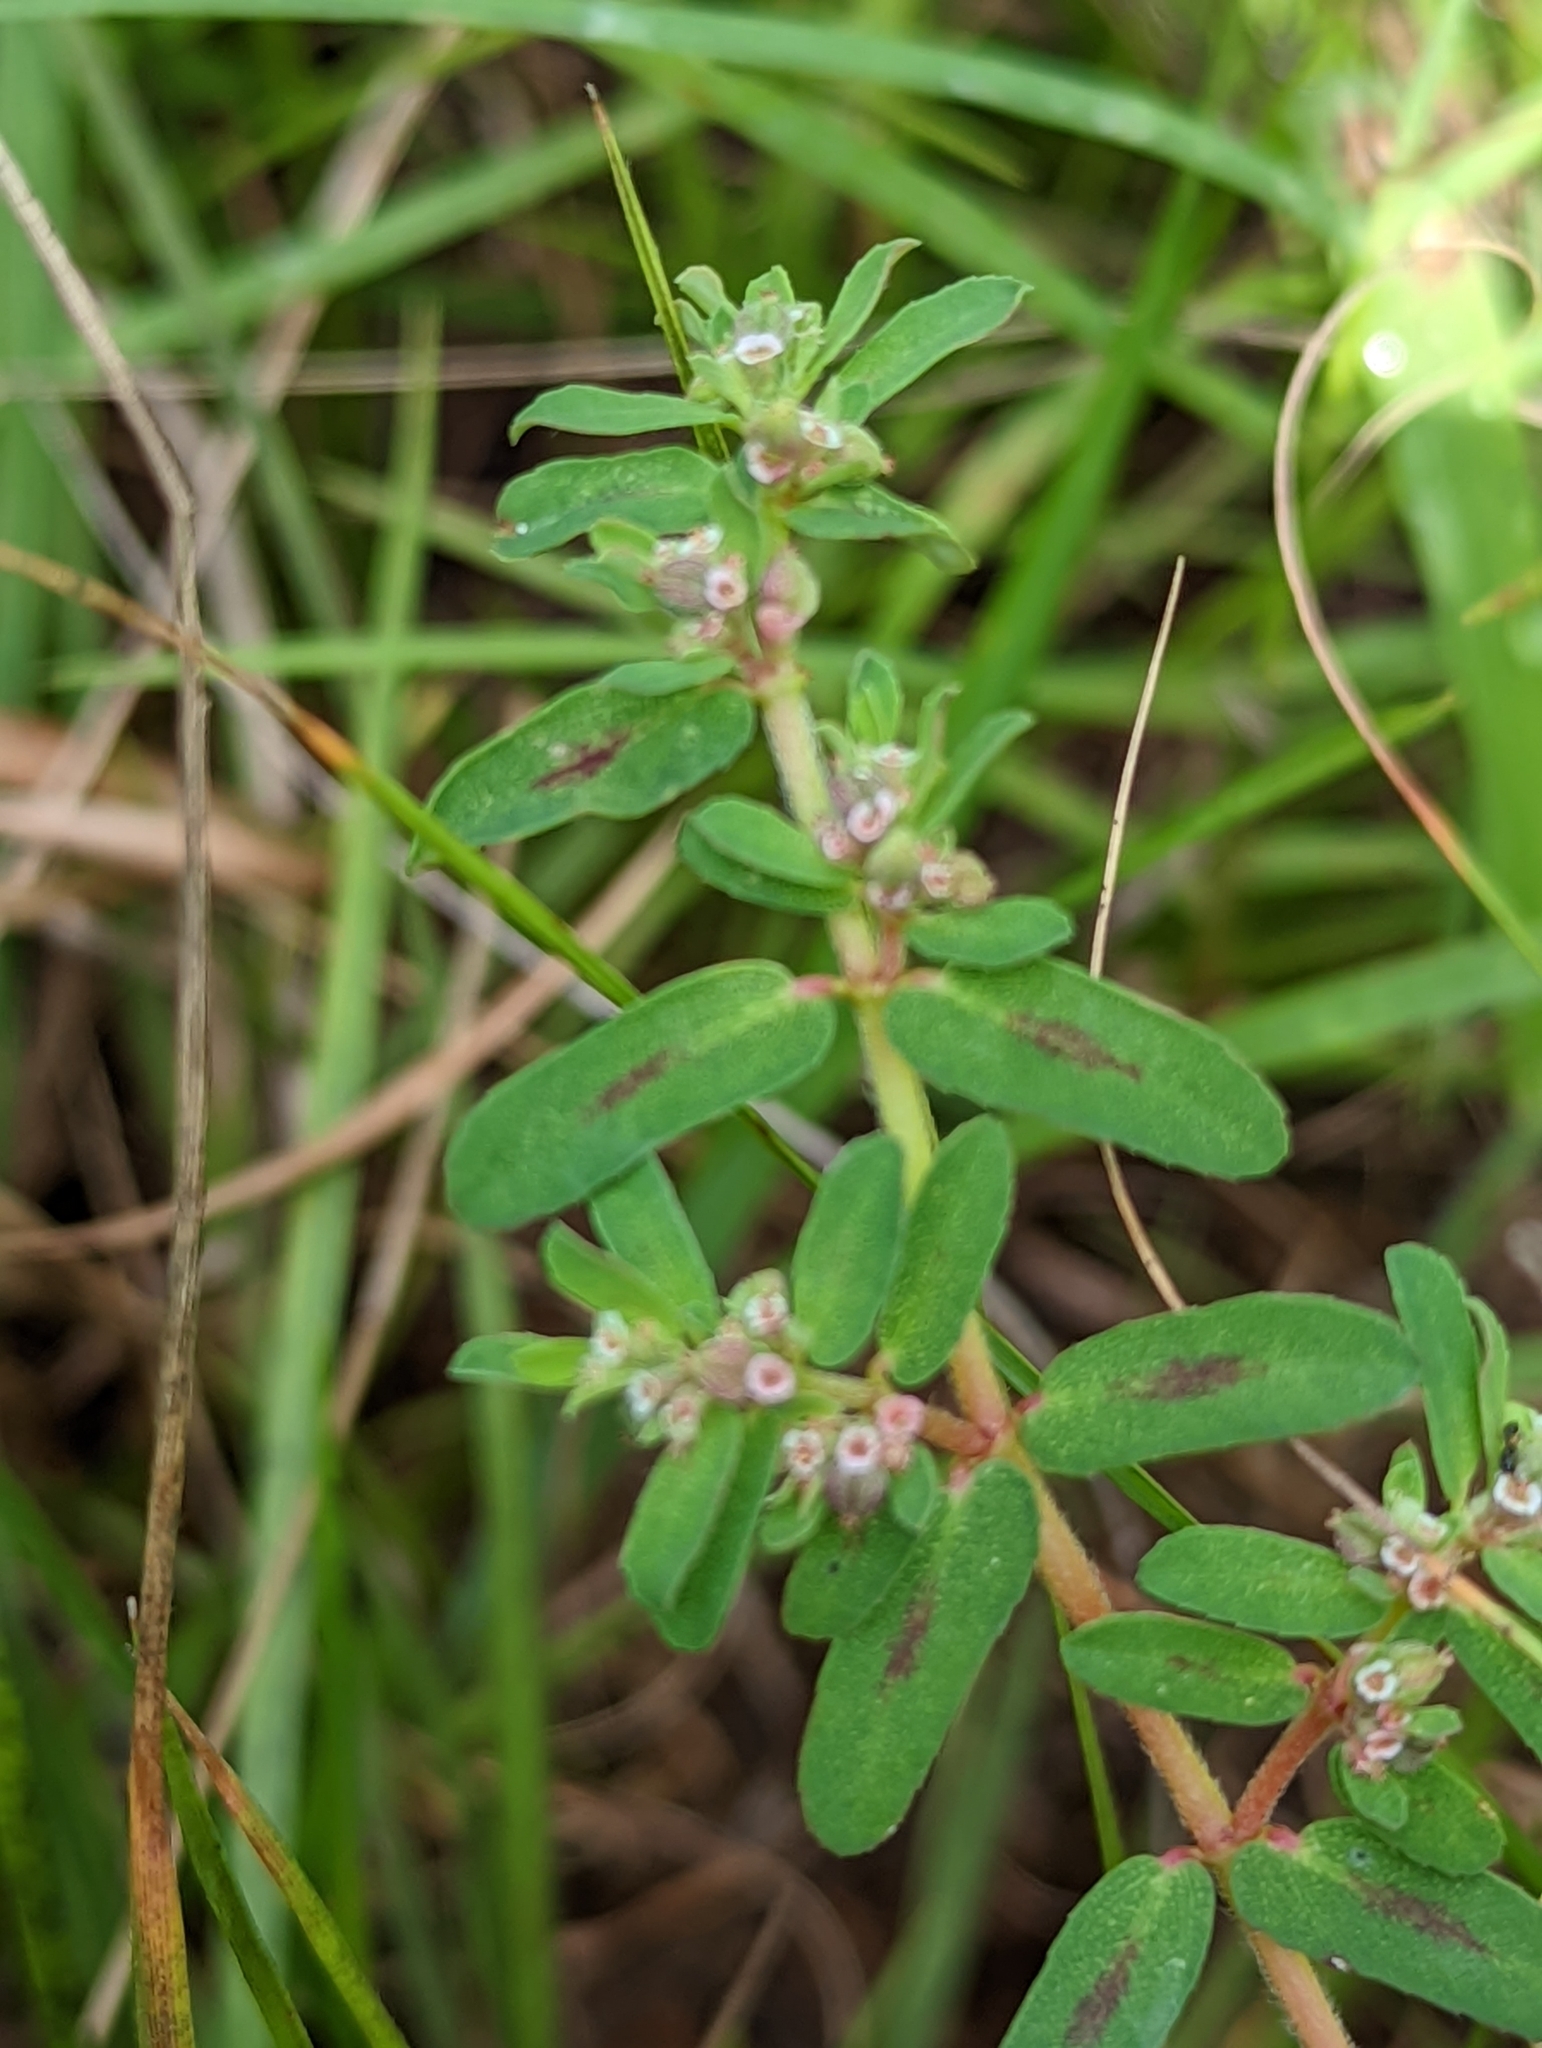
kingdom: Plantae
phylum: Tracheophyta
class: Magnoliopsida
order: Malpighiales
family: Euphorbiaceae
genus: Euphorbia
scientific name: Euphorbia maculata
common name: Spotted spurge
